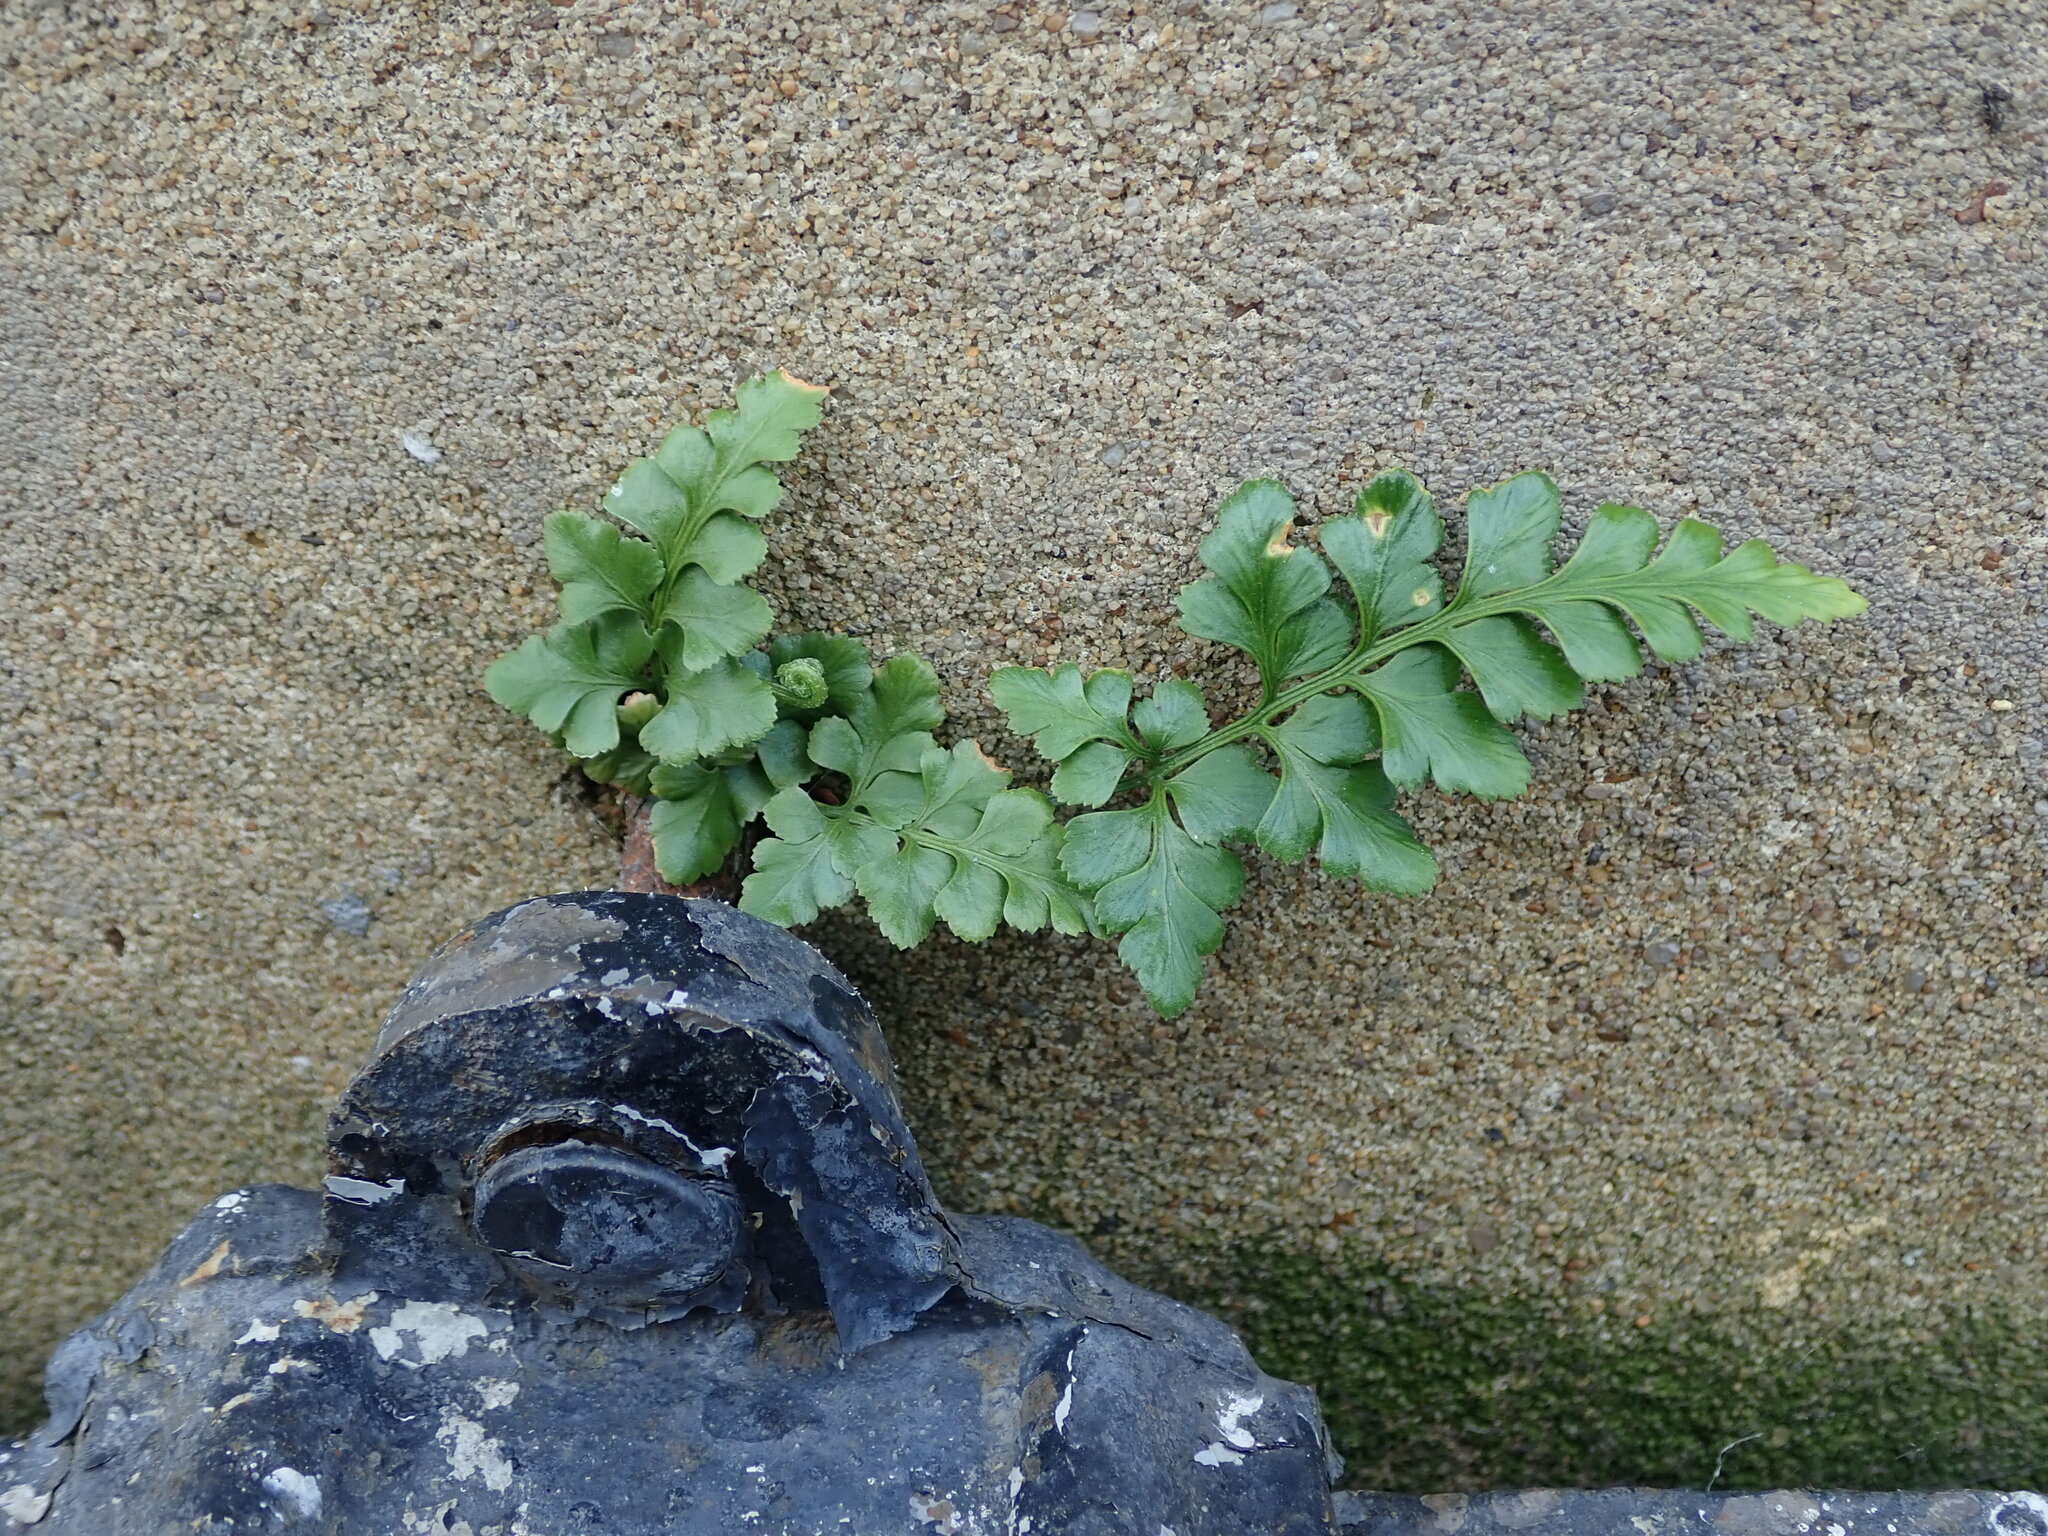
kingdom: Plantae
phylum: Tracheophyta
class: Polypodiopsida
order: Polypodiales
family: Aspleniaceae
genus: Asplenium
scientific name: Asplenium adiantum-nigrum
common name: Black spleenwort
